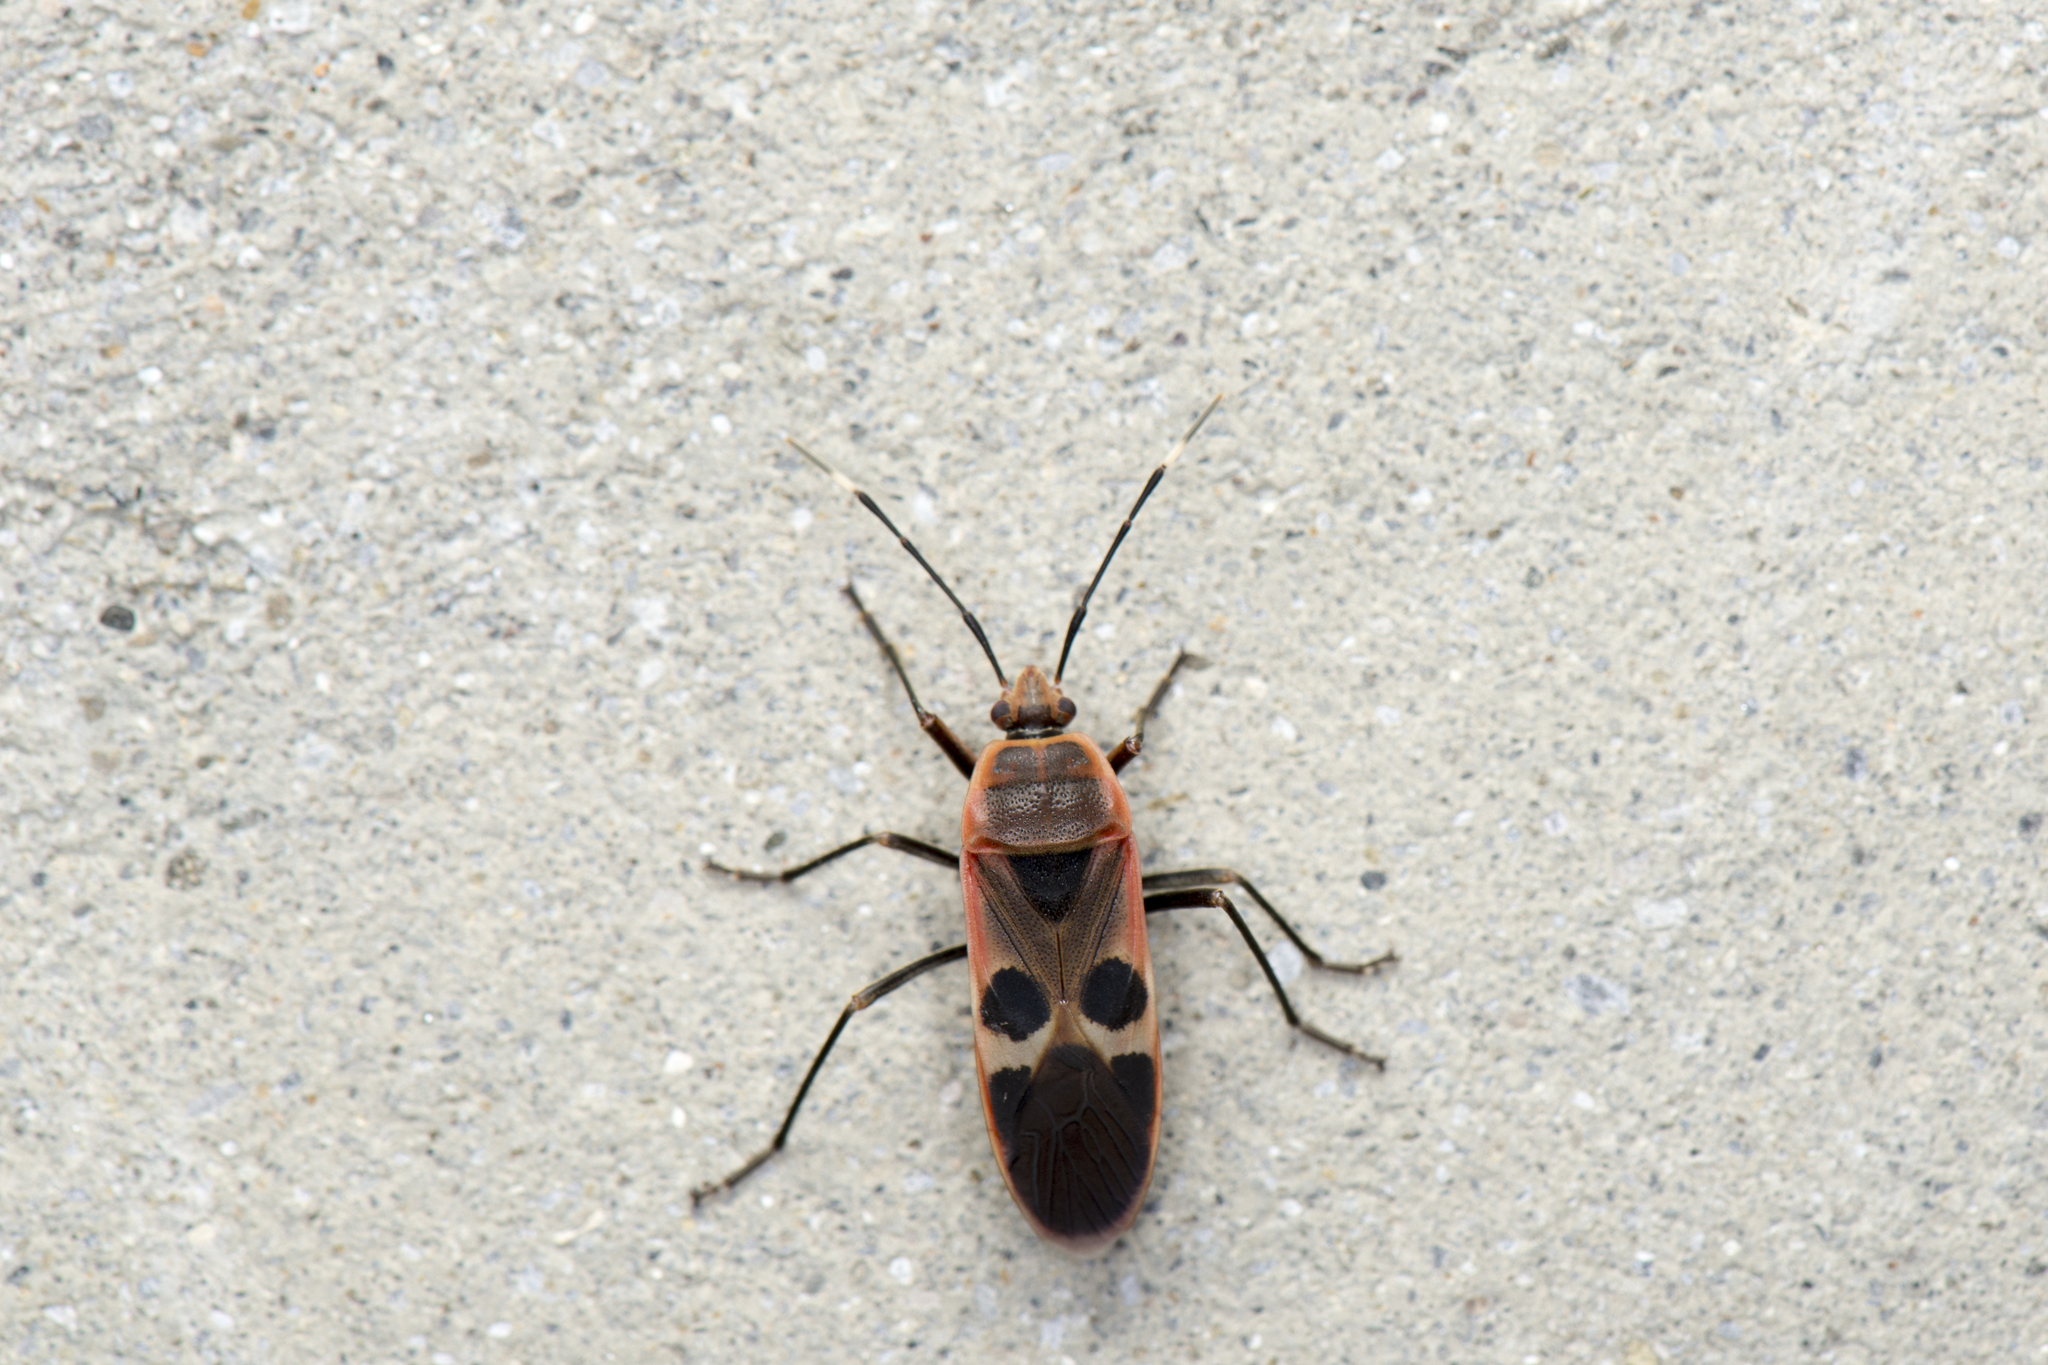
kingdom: Animalia
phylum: Arthropoda
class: Insecta
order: Hemiptera
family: Largidae
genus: Physopelta
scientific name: Physopelta gutta
